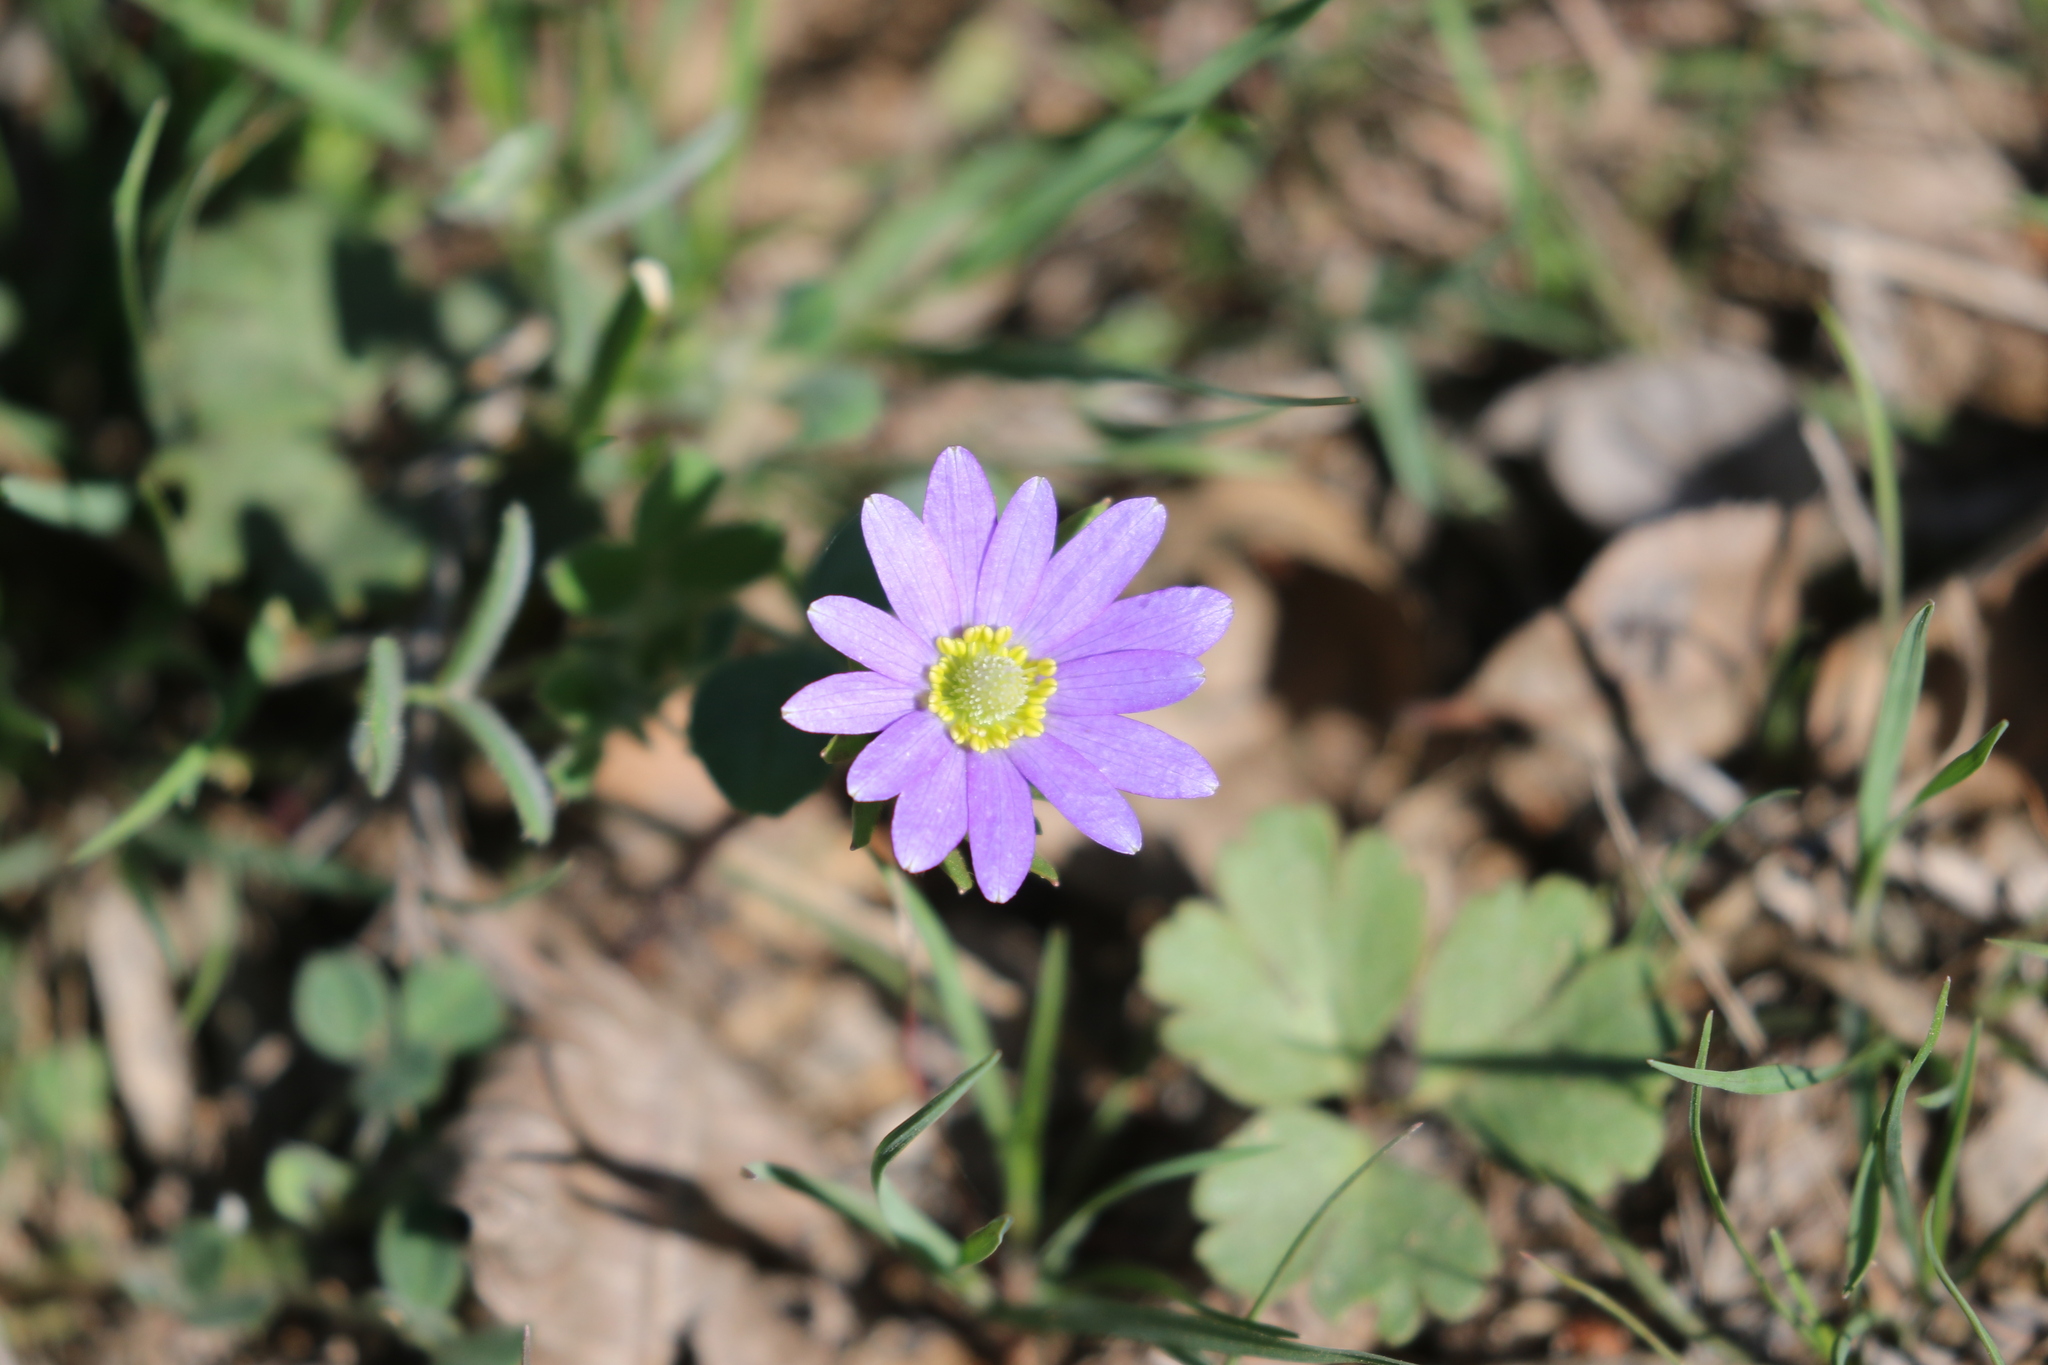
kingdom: Plantae
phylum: Tracheophyta
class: Magnoliopsida
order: Ranunculales
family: Ranunculaceae
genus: Anemone
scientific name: Anemone berlandieri
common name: Ten-petal anemone
